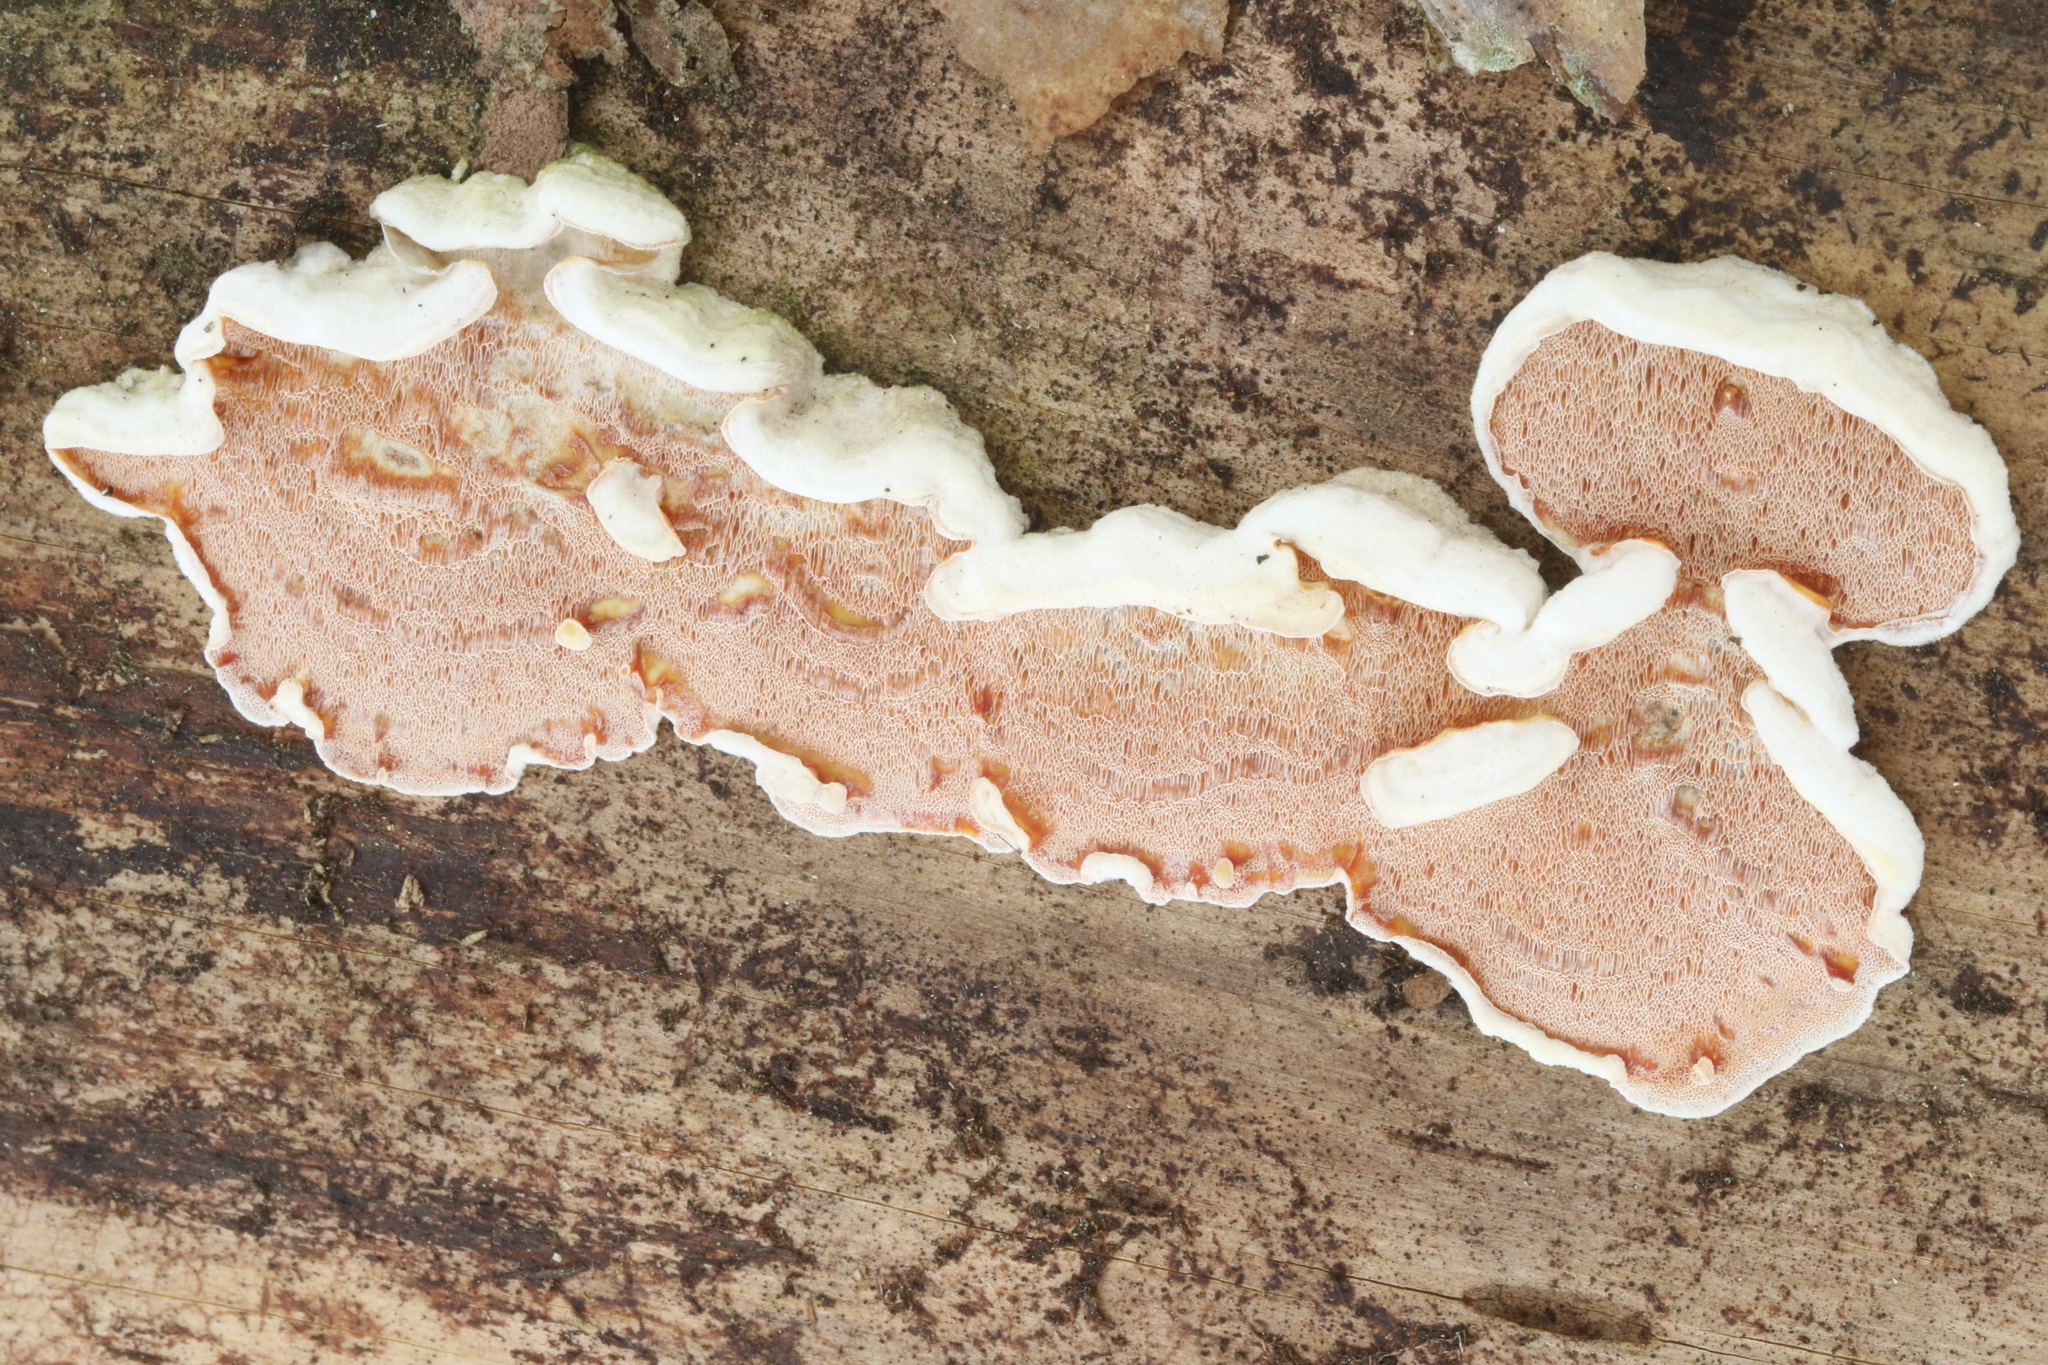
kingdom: Fungi
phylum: Basidiomycota
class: Agaricomycetes
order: Polyporales
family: Irpicaceae
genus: Vitreoporus
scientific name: Vitreoporus dichrous
